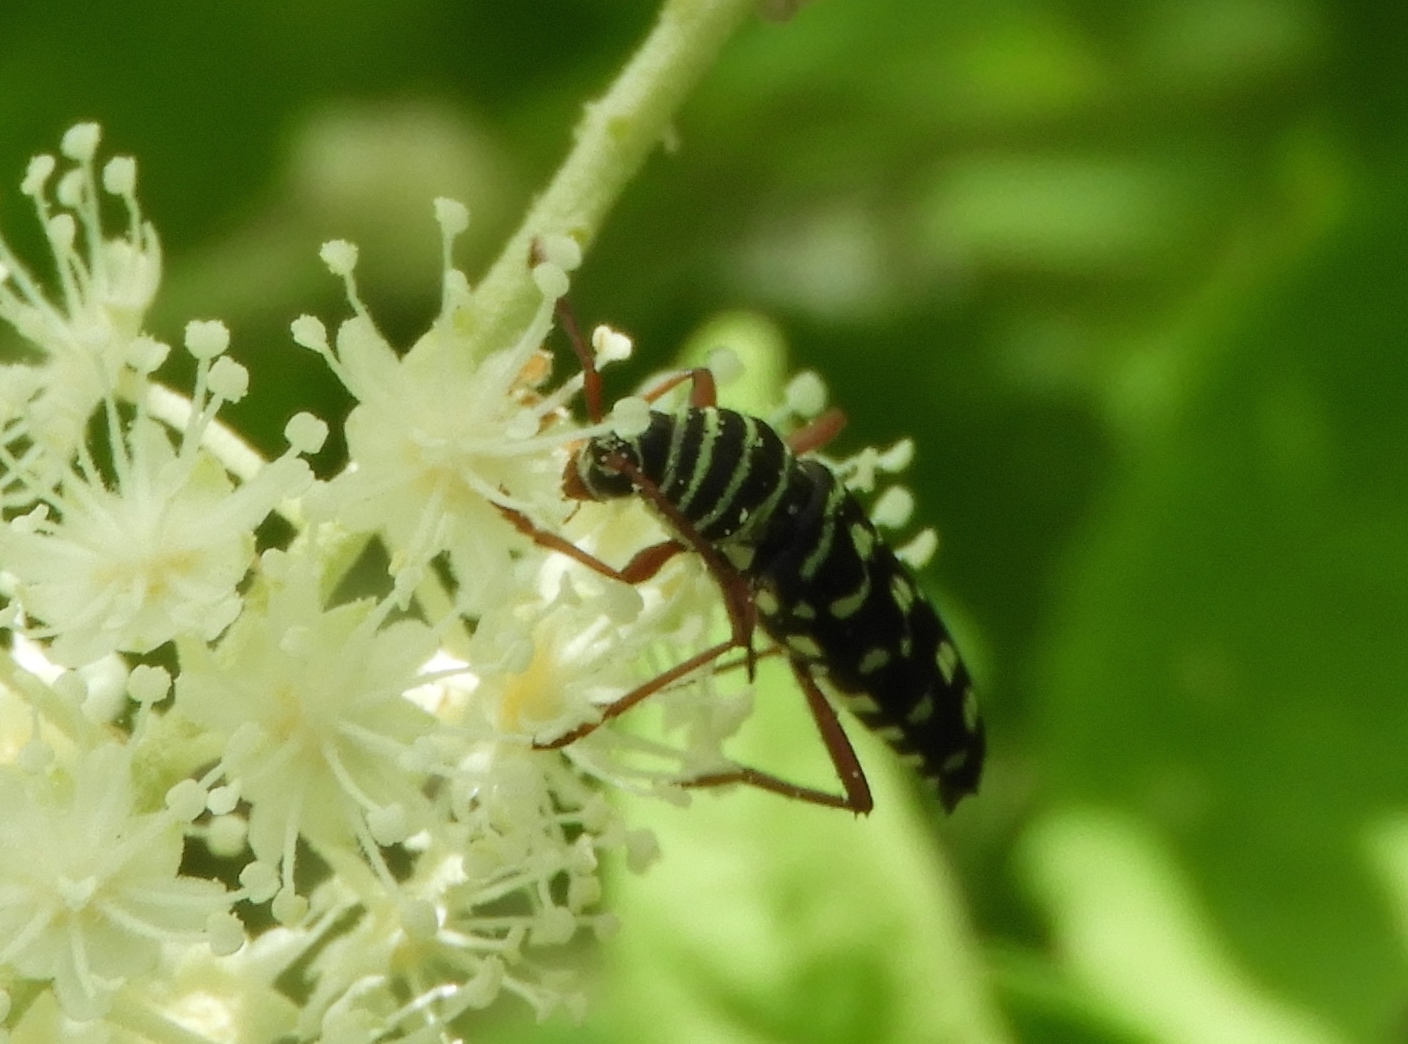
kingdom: Animalia
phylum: Arthropoda
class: Insecta
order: Coleoptera
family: Cerambycidae
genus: Placosternus
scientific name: Placosternus difficilis
